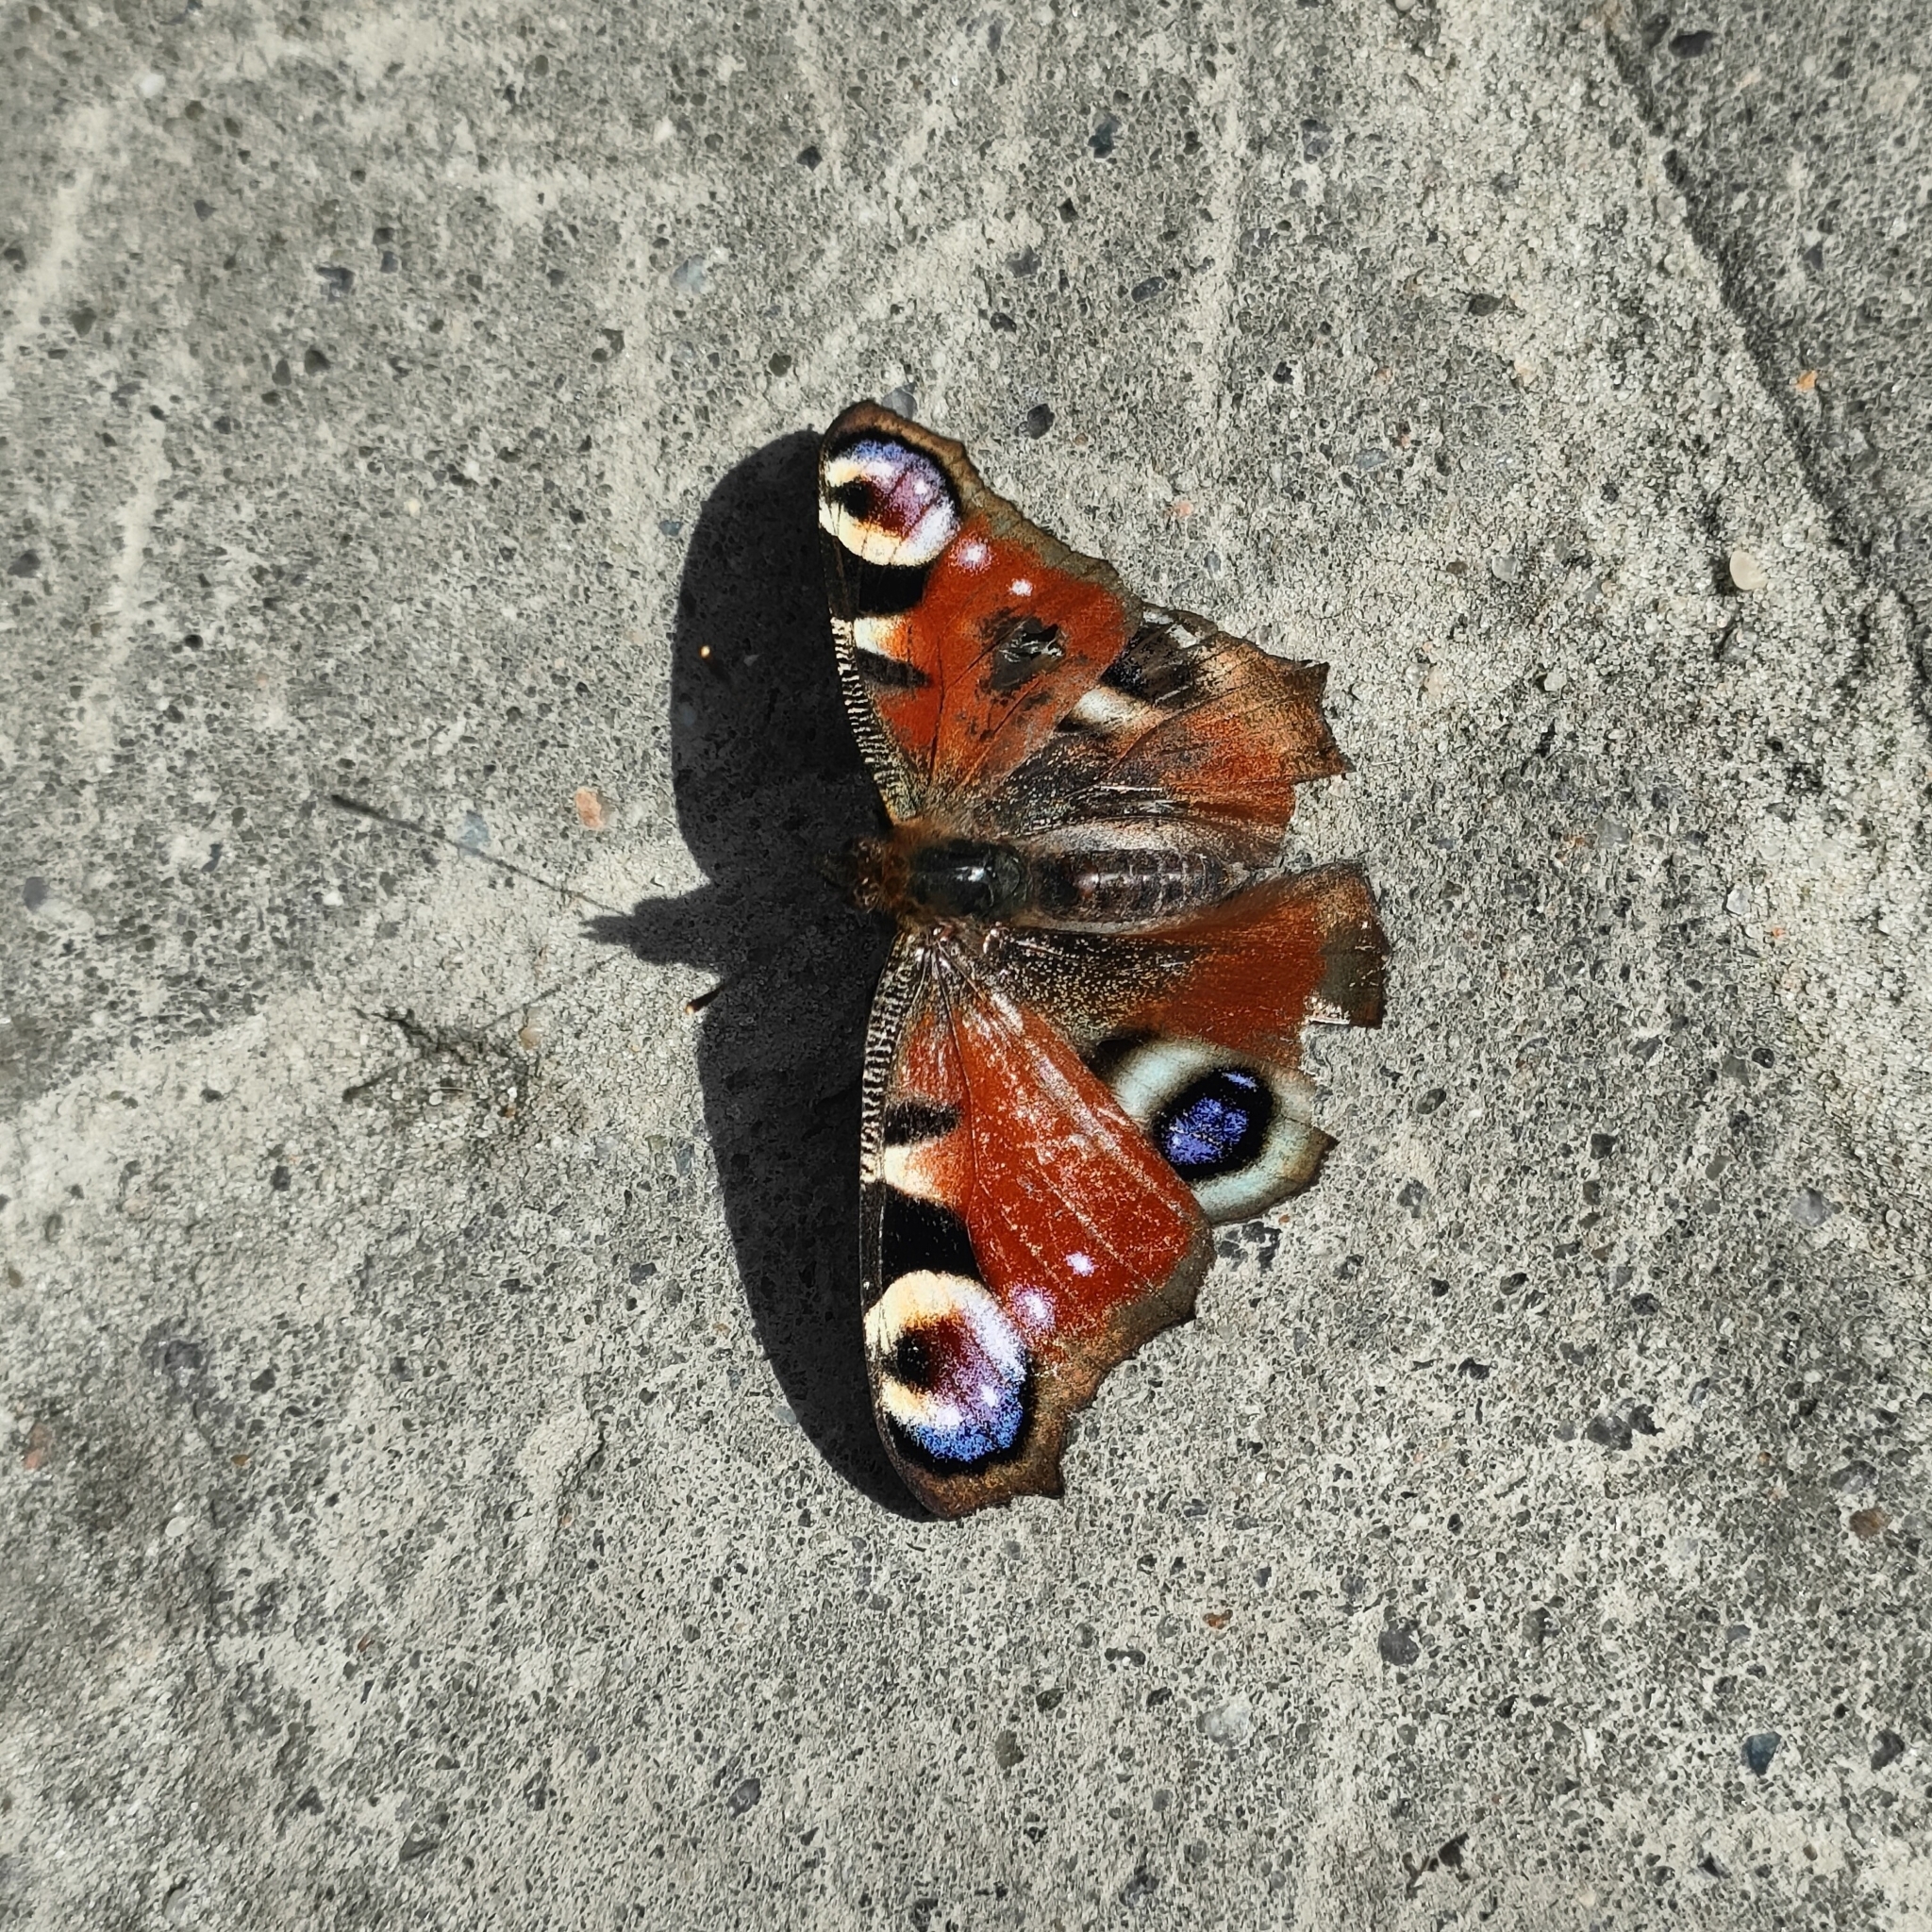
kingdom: Animalia
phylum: Arthropoda
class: Insecta
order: Lepidoptera
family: Nymphalidae
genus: Aglais
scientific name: Aglais io
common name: Peacock
